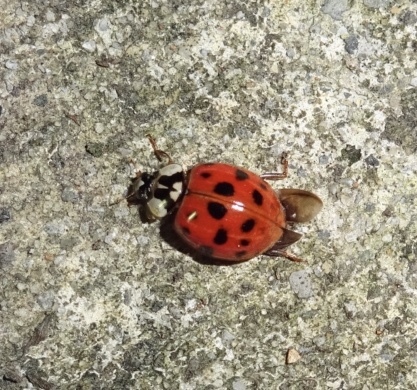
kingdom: Animalia
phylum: Arthropoda
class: Insecta
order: Coleoptera
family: Coccinellidae
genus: Harmonia
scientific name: Harmonia axyridis
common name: Harlequin ladybird
